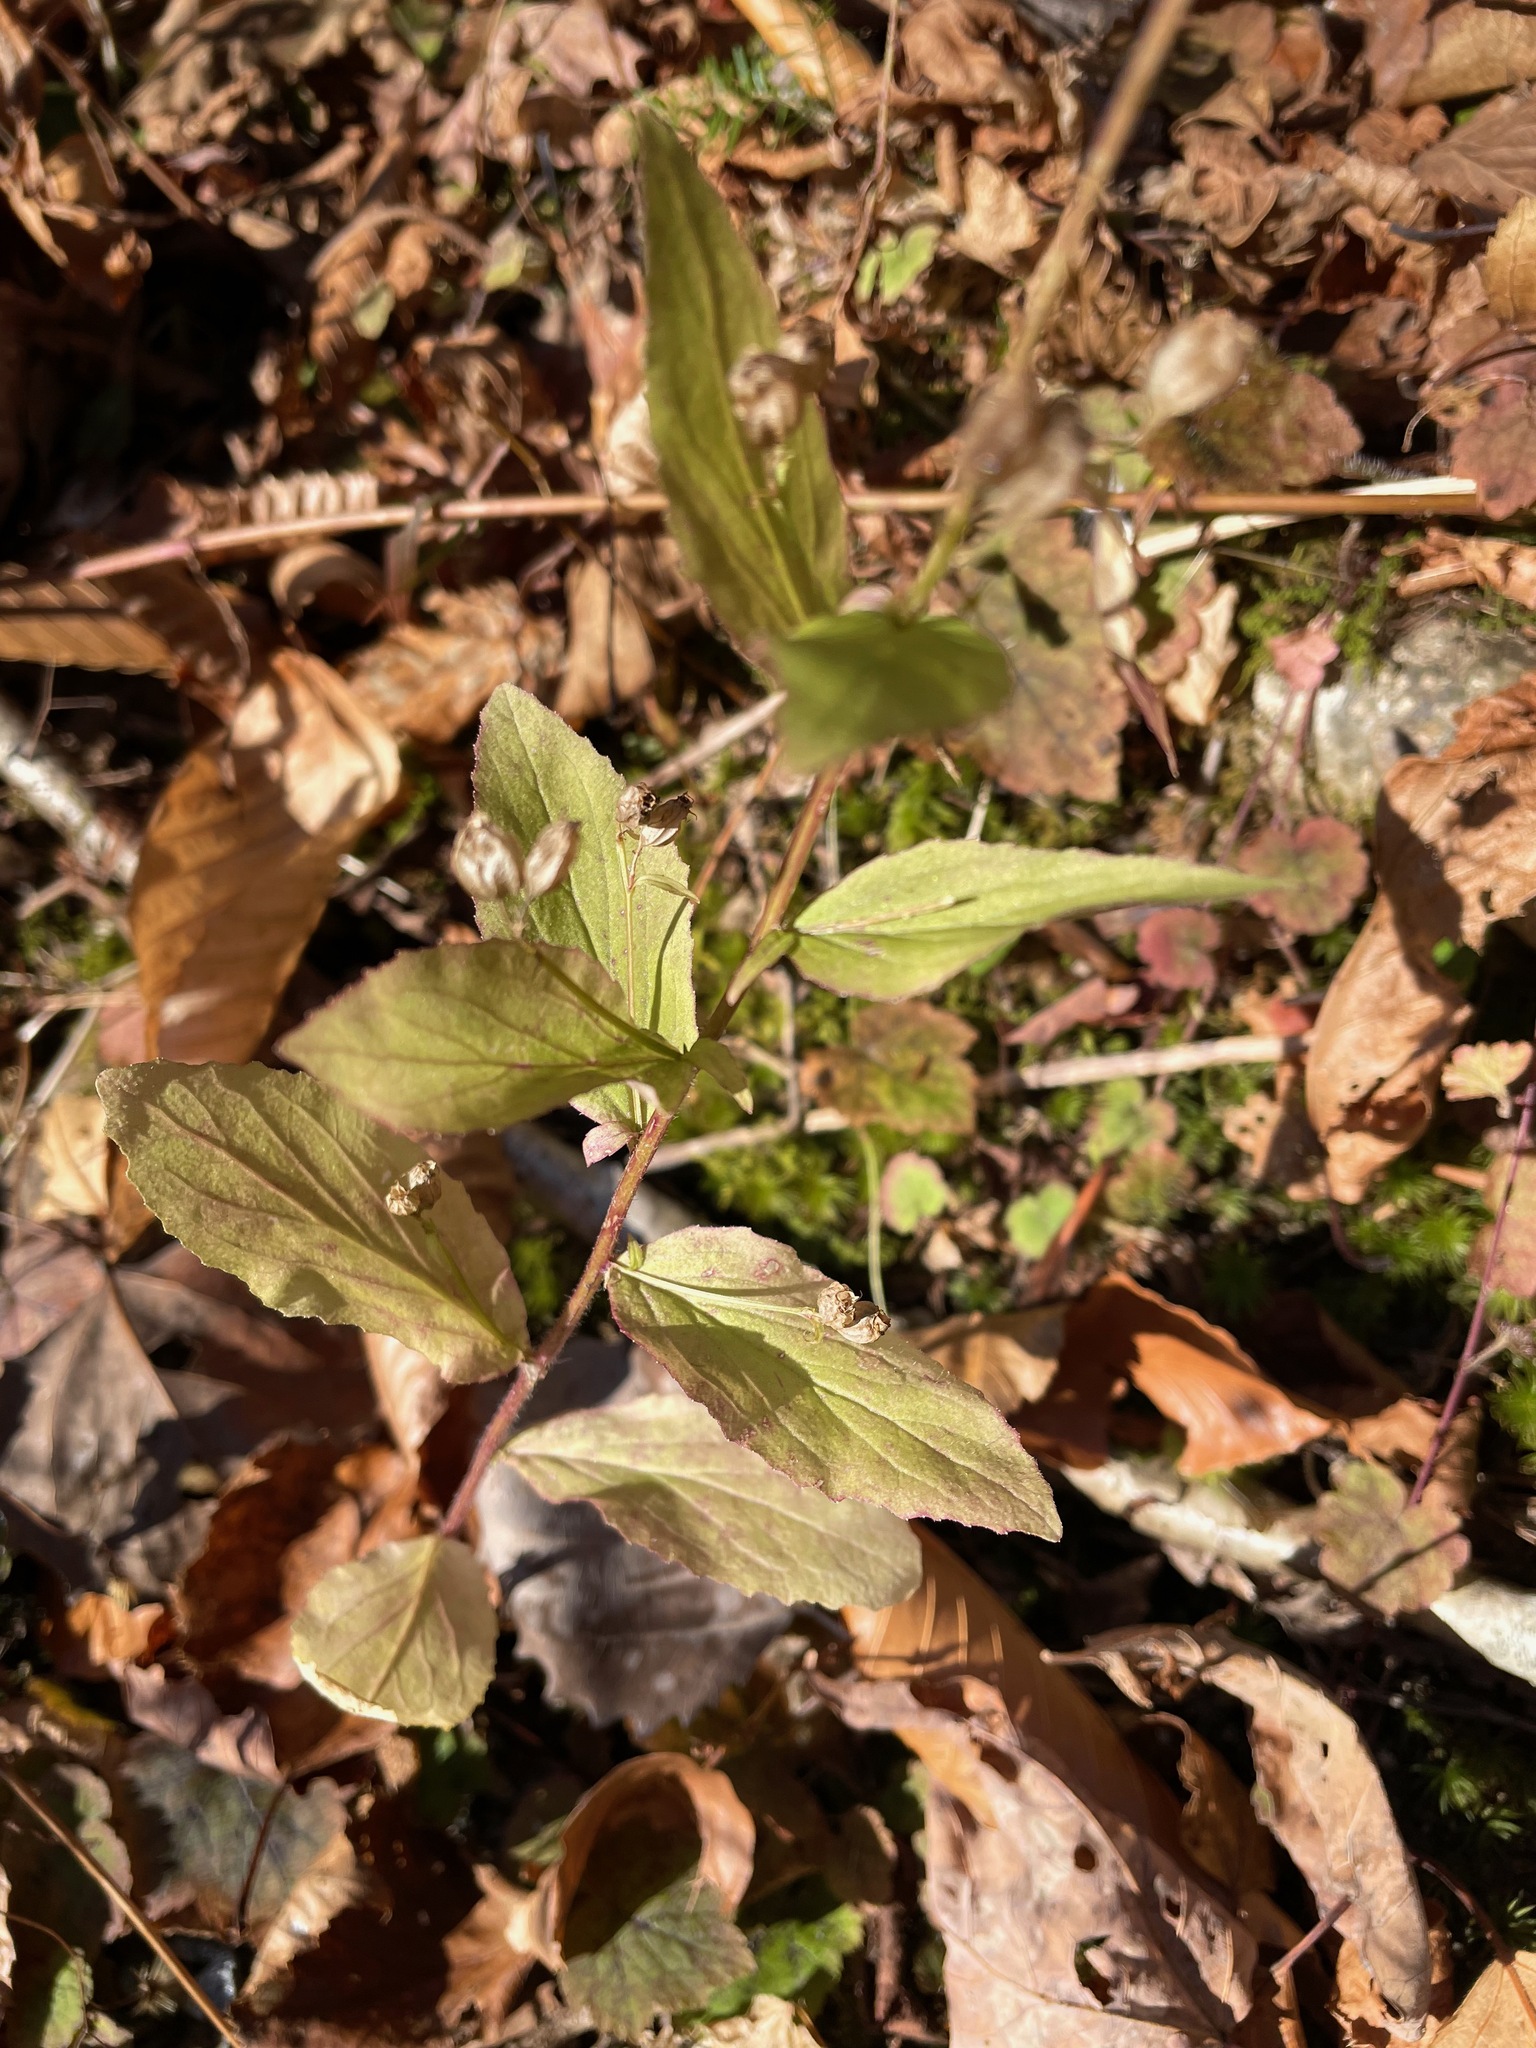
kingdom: Plantae
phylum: Tracheophyta
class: Magnoliopsida
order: Asterales
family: Campanulaceae
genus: Lobelia
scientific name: Lobelia inflata
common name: Indian tobacco
